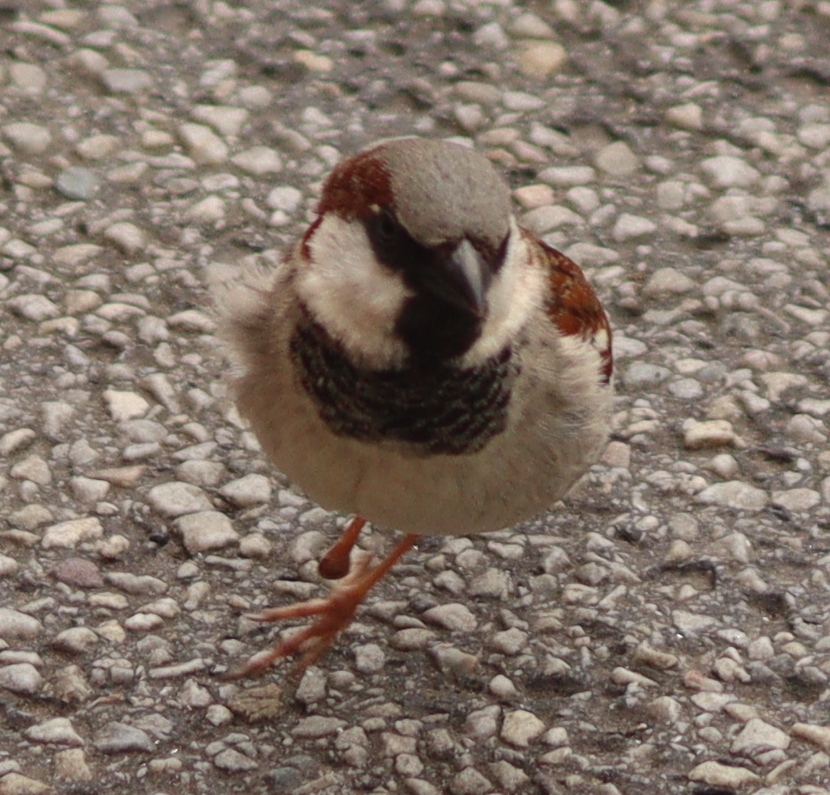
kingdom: Animalia
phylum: Chordata
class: Aves
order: Passeriformes
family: Passeridae
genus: Passer
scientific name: Passer domesticus
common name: House sparrow
